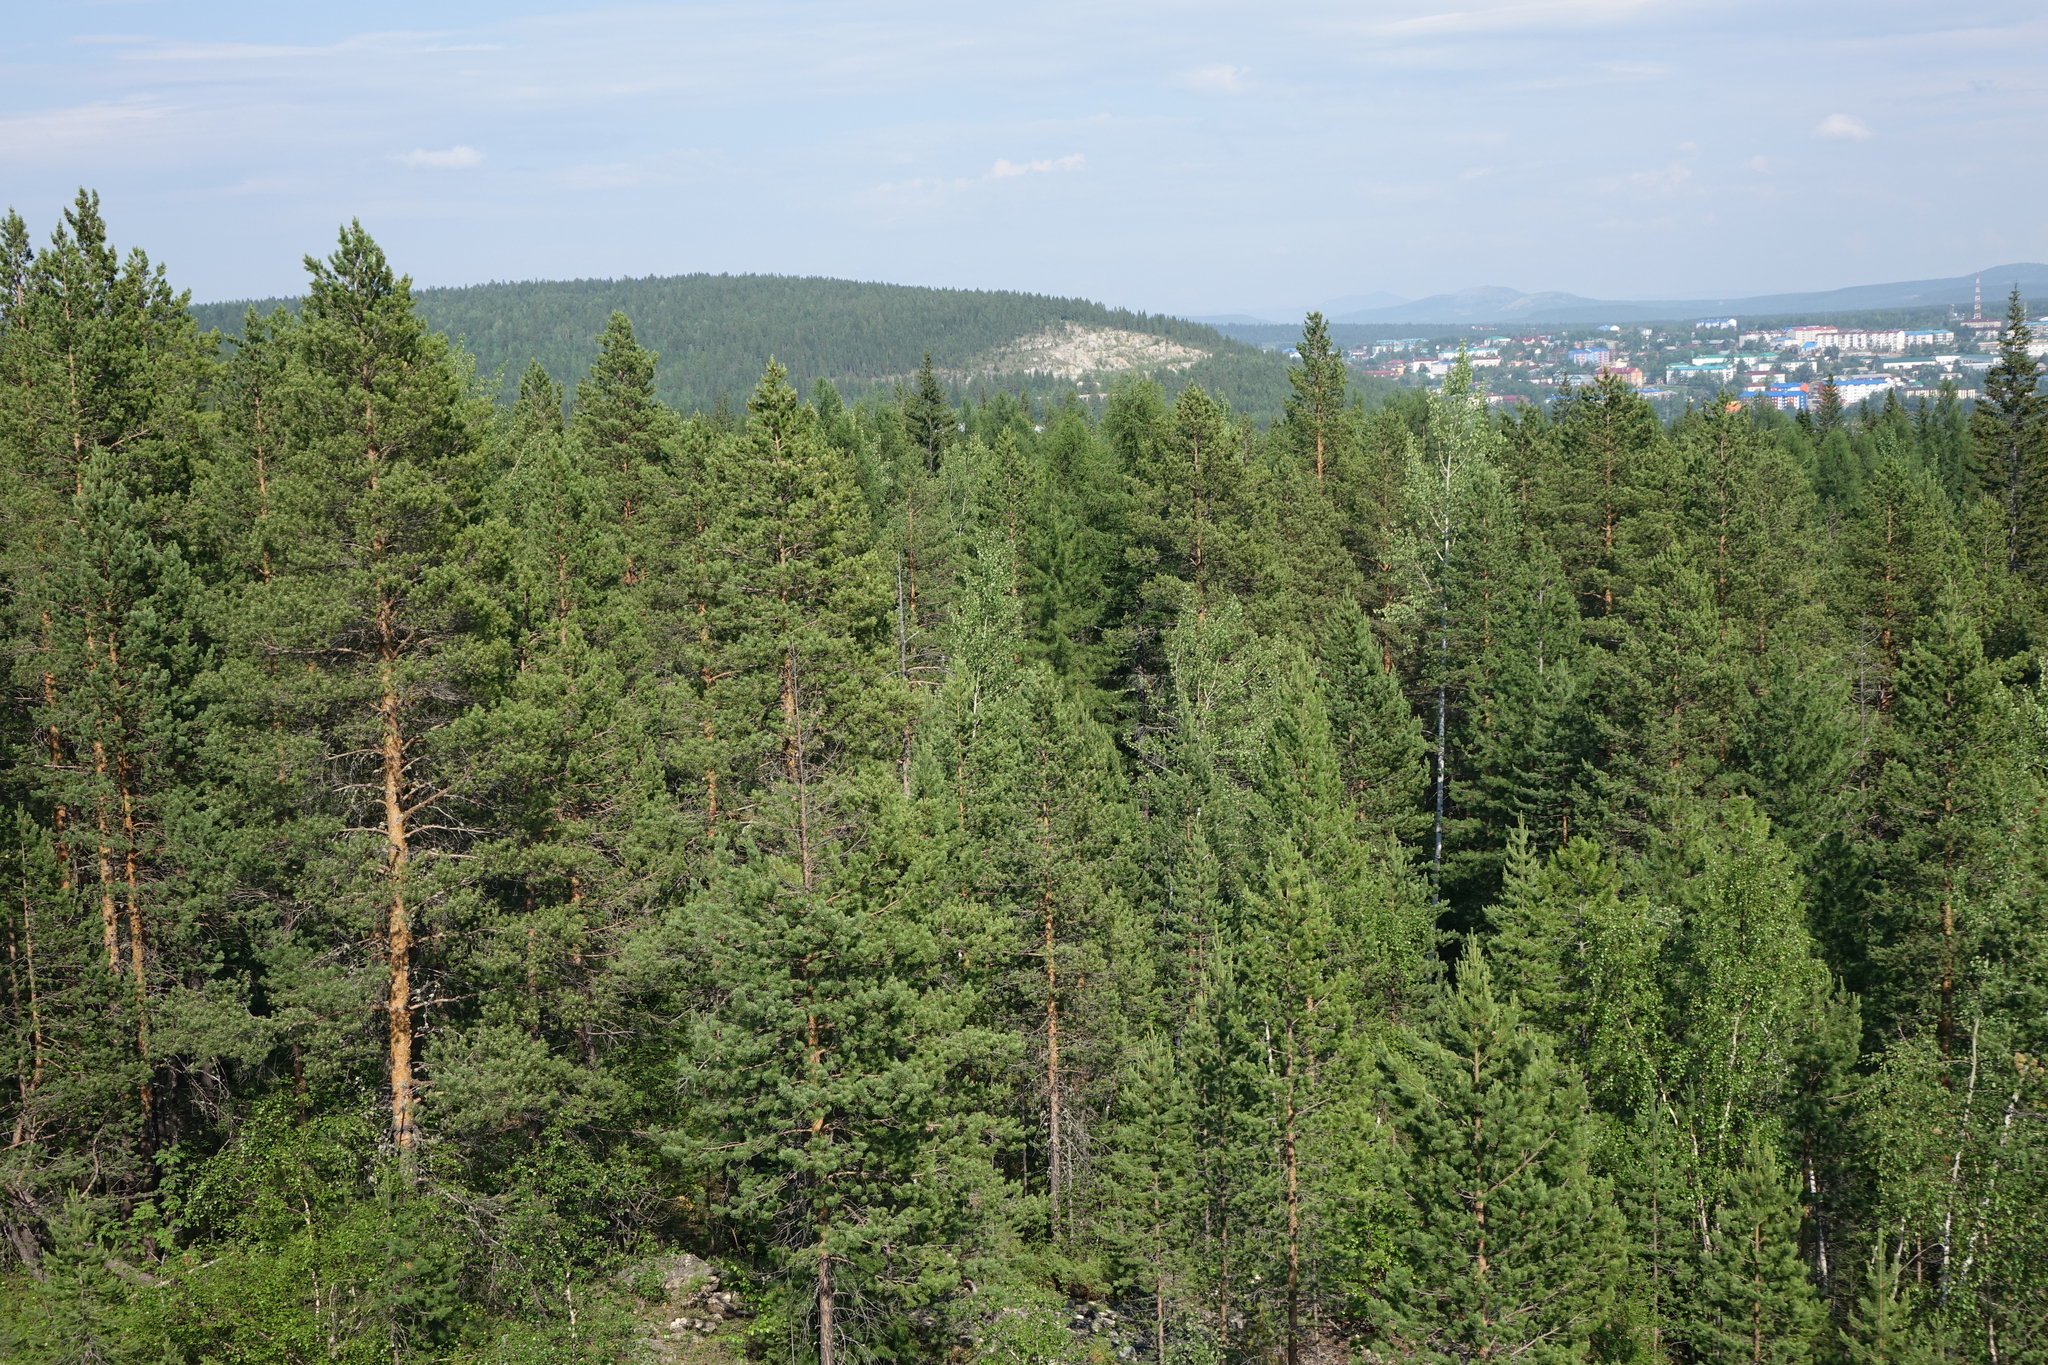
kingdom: Plantae
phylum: Tracheophyta
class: Pinopsida
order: Pinales
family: Pinaceae
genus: Pinus
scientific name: Pinus sylvestris
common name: Scots pine
